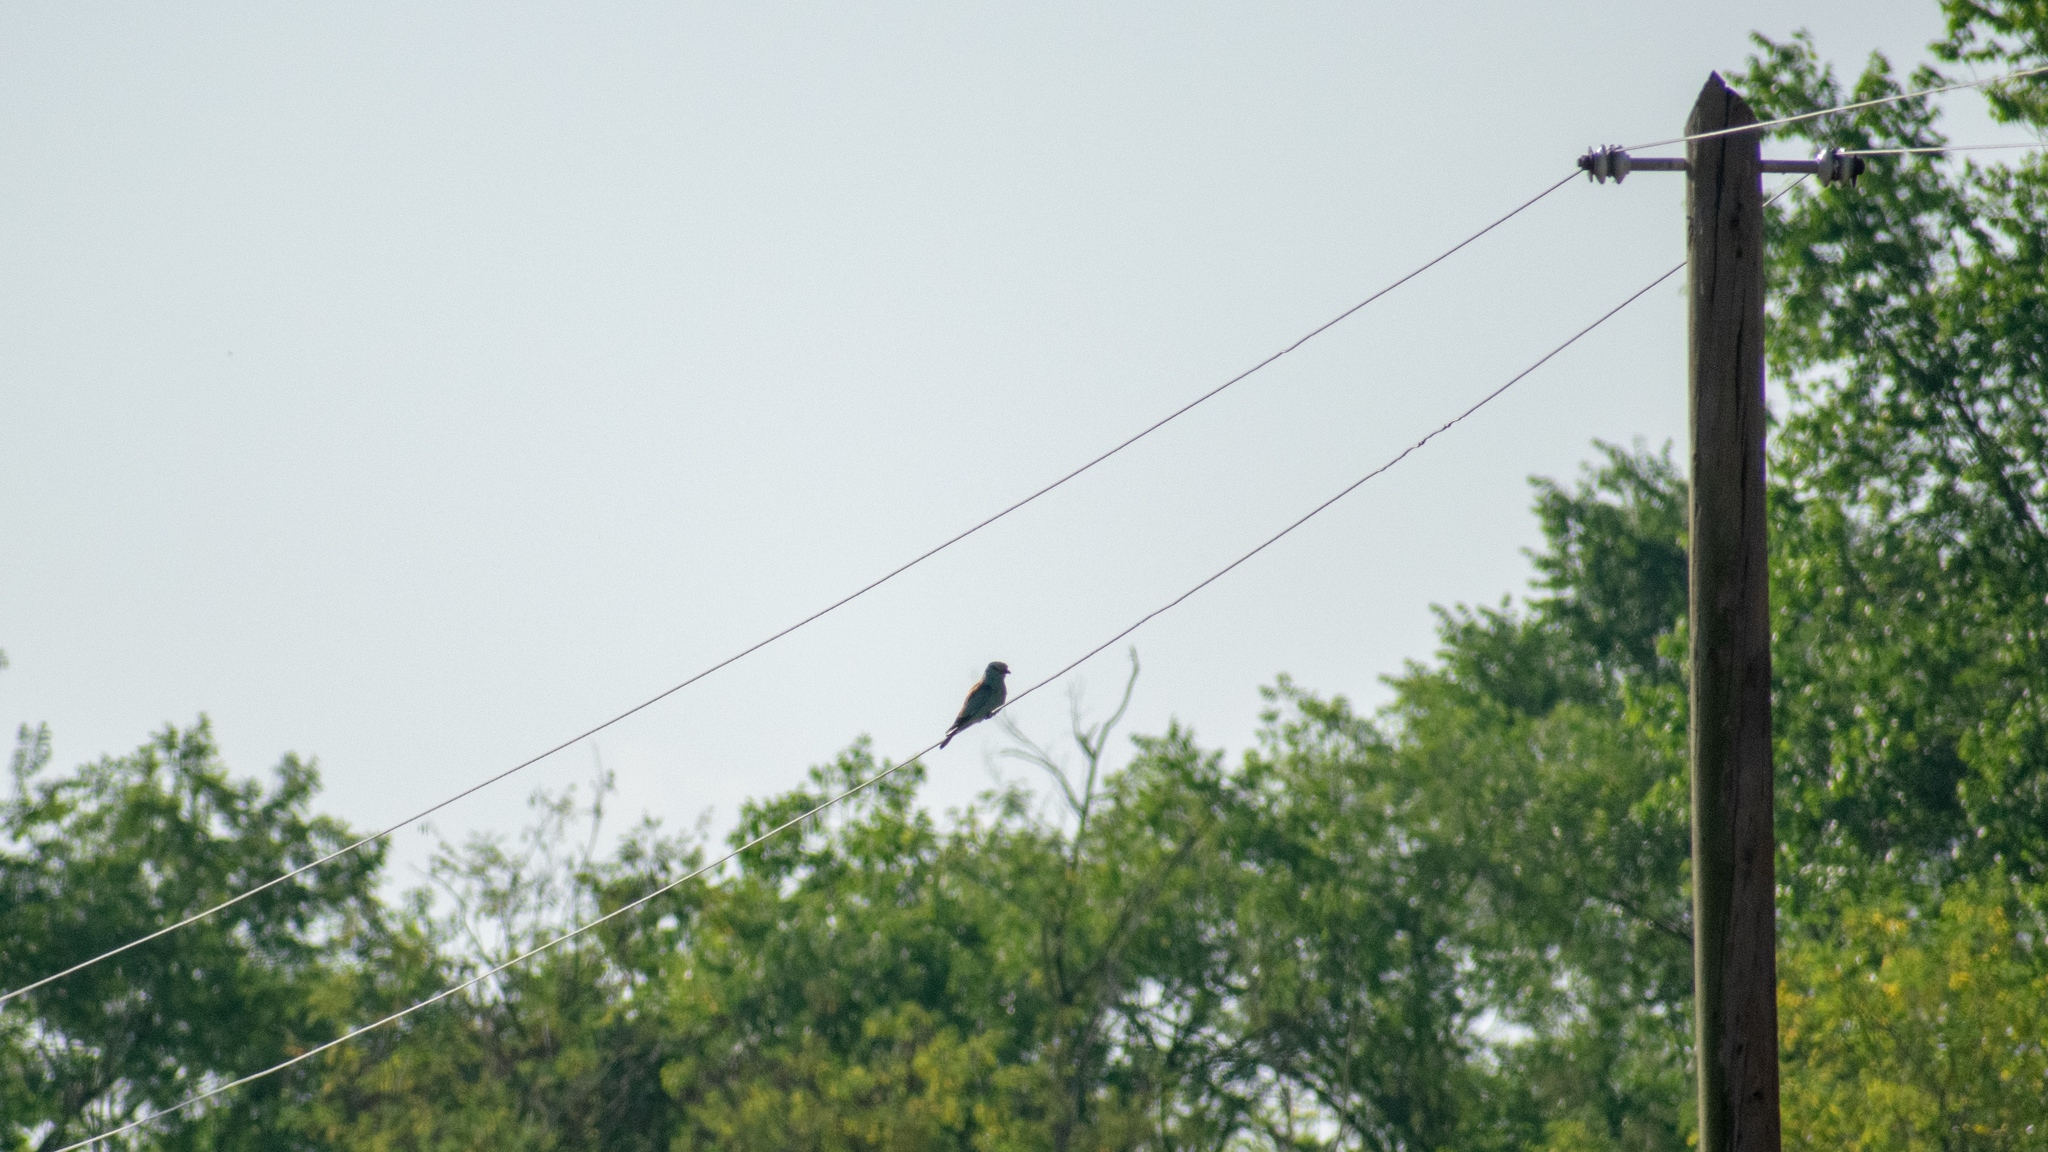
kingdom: Animalia
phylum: Chordata
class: Aves
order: Coraciiformes
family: Coraciidae
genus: Coracias
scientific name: Coracias garrulus
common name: European roller
